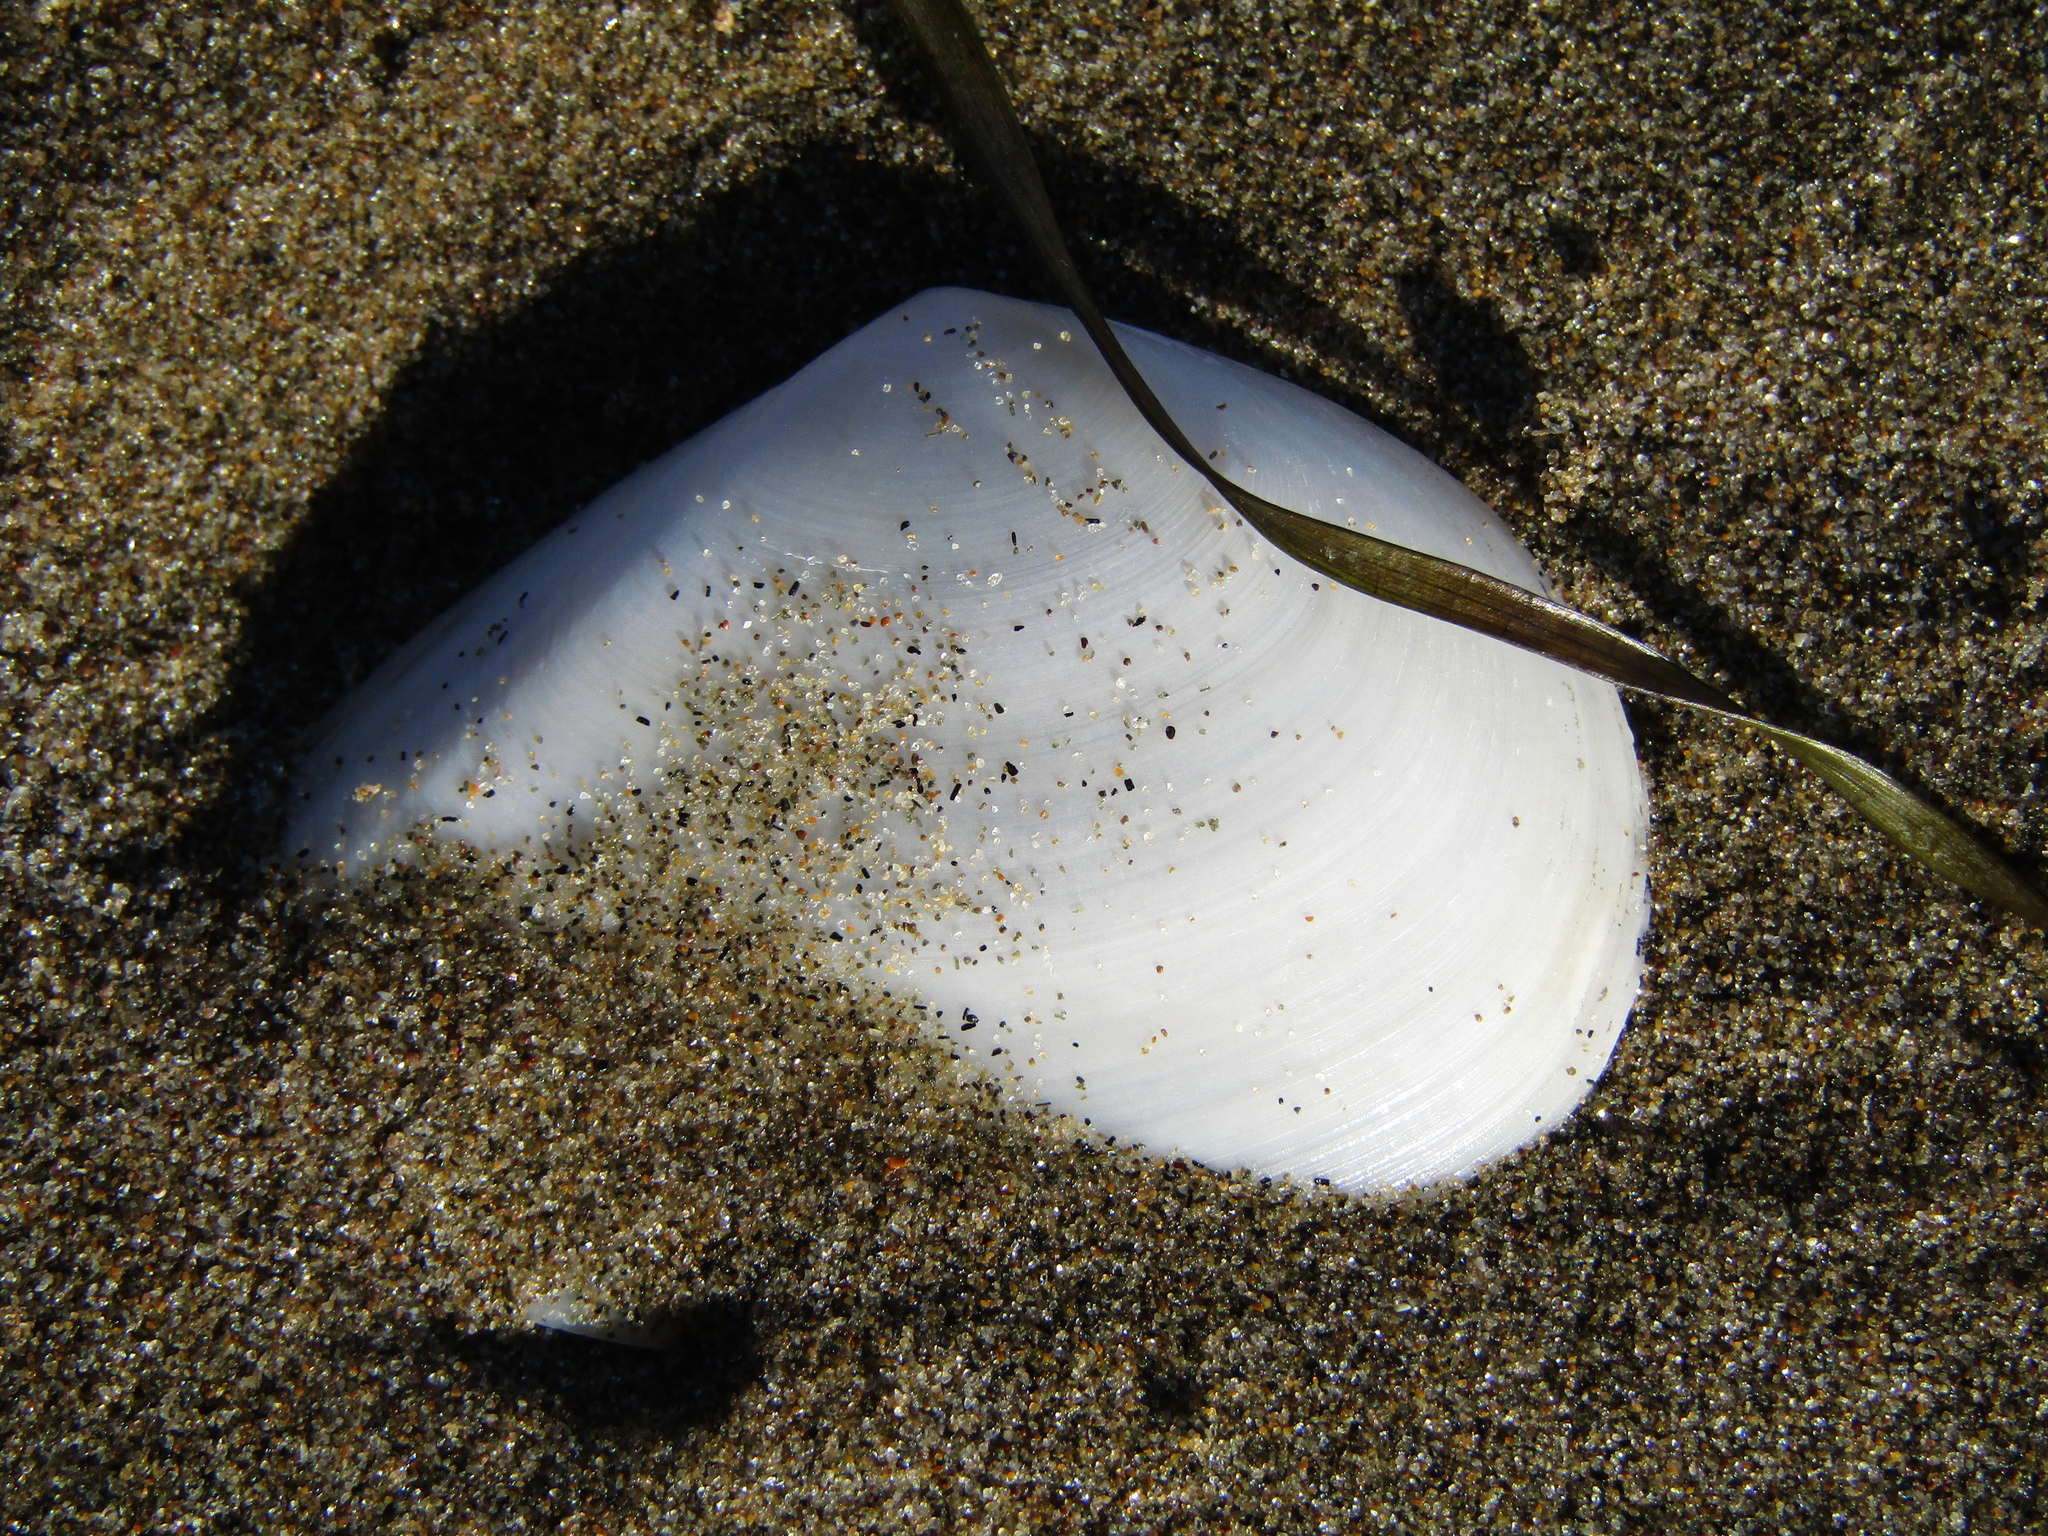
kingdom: Animalia
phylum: Mollusca
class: Bivalvia
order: Cardiida
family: Tellinidae
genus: Bartschicoma
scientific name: Bartschicoma gaimardi
